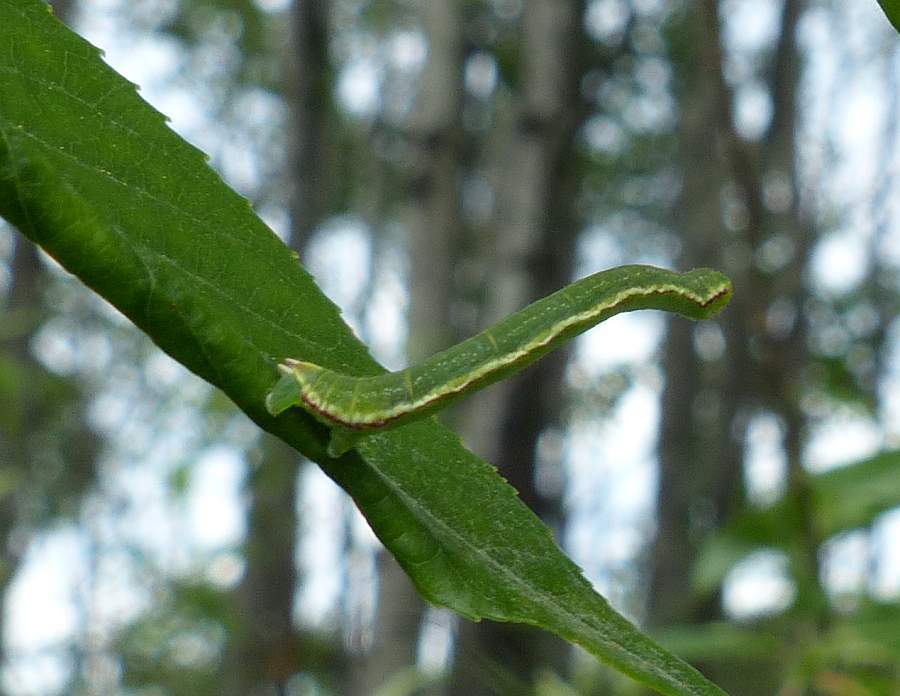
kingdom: Animalia
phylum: Arthropoda
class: Insecta
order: Lepidoptera
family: Geometridae
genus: Eupithecia
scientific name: Eupithecia ravocostaliata
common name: Great varigated pug
